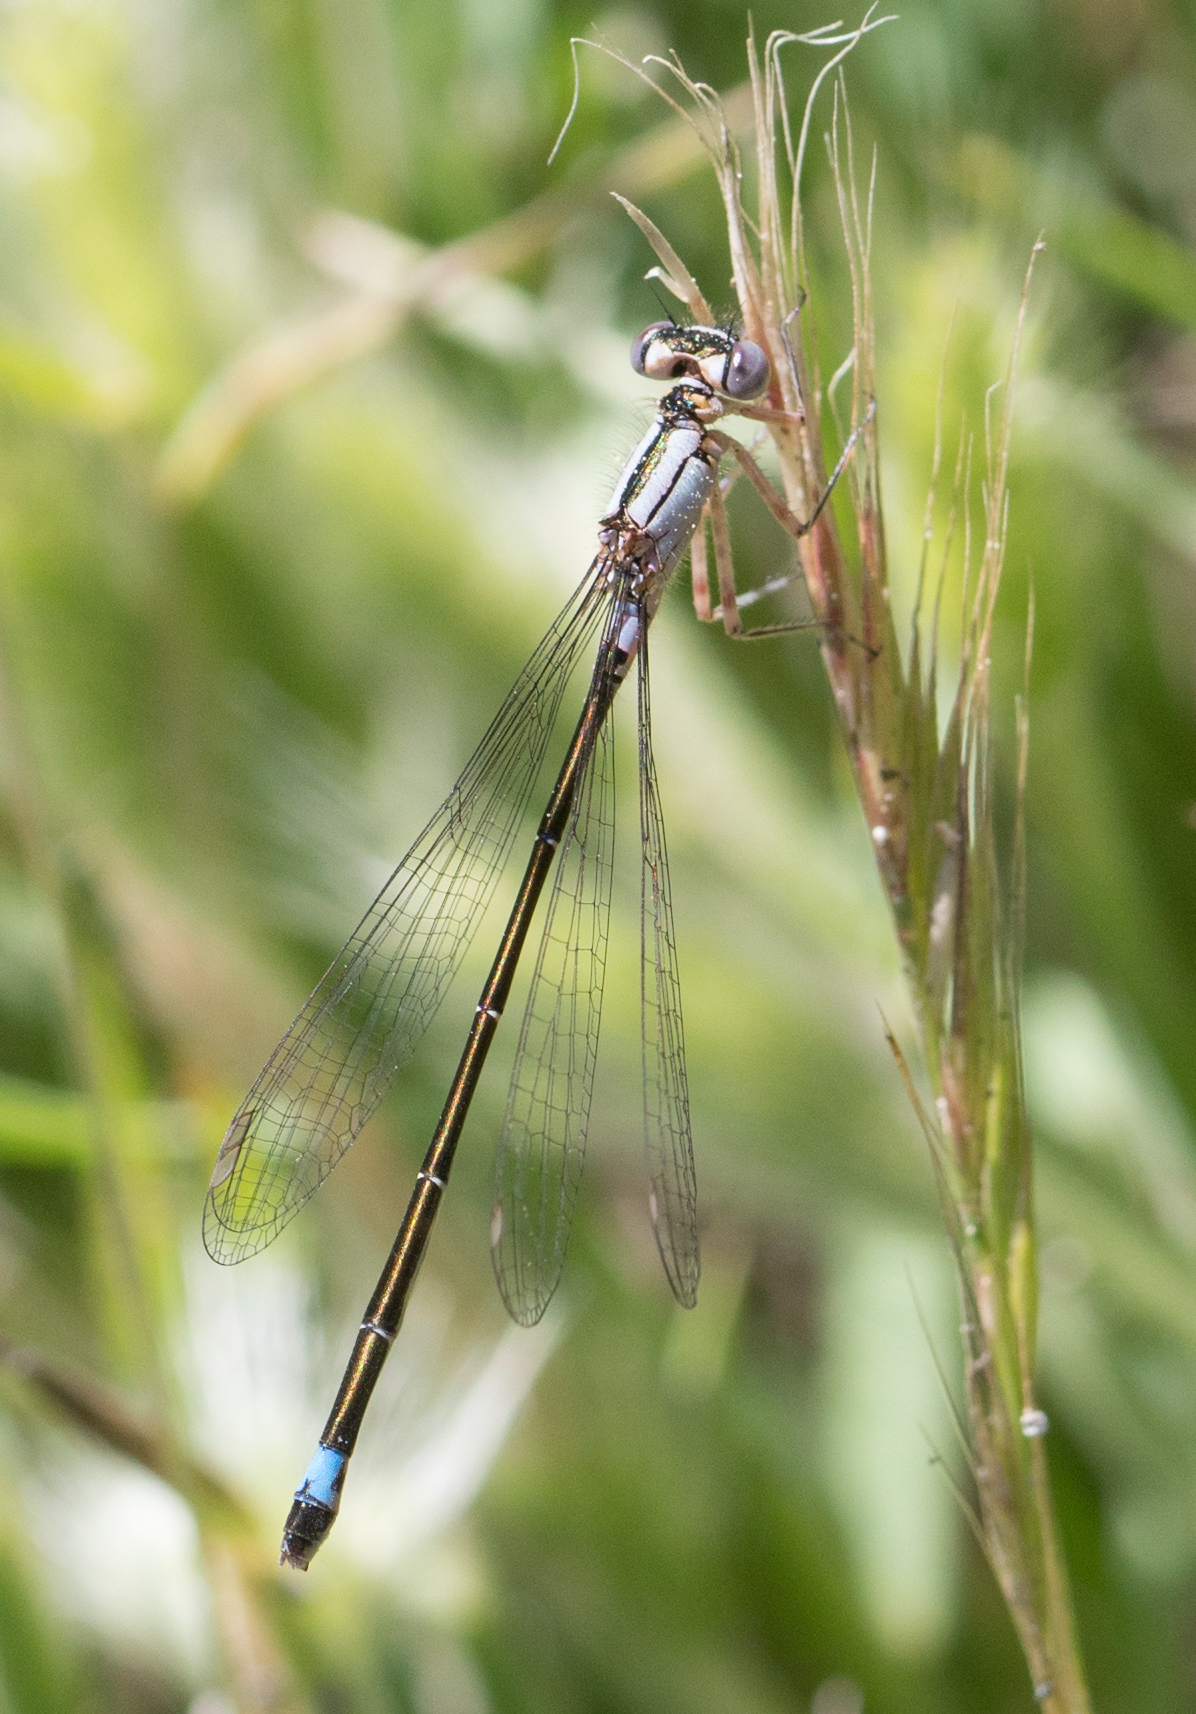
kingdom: Animalia
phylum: Arthropoda
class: Insecta
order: Odonata
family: Coenagrionidae
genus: Ischnura
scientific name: Ischnura cervula
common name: Pacific forktail
